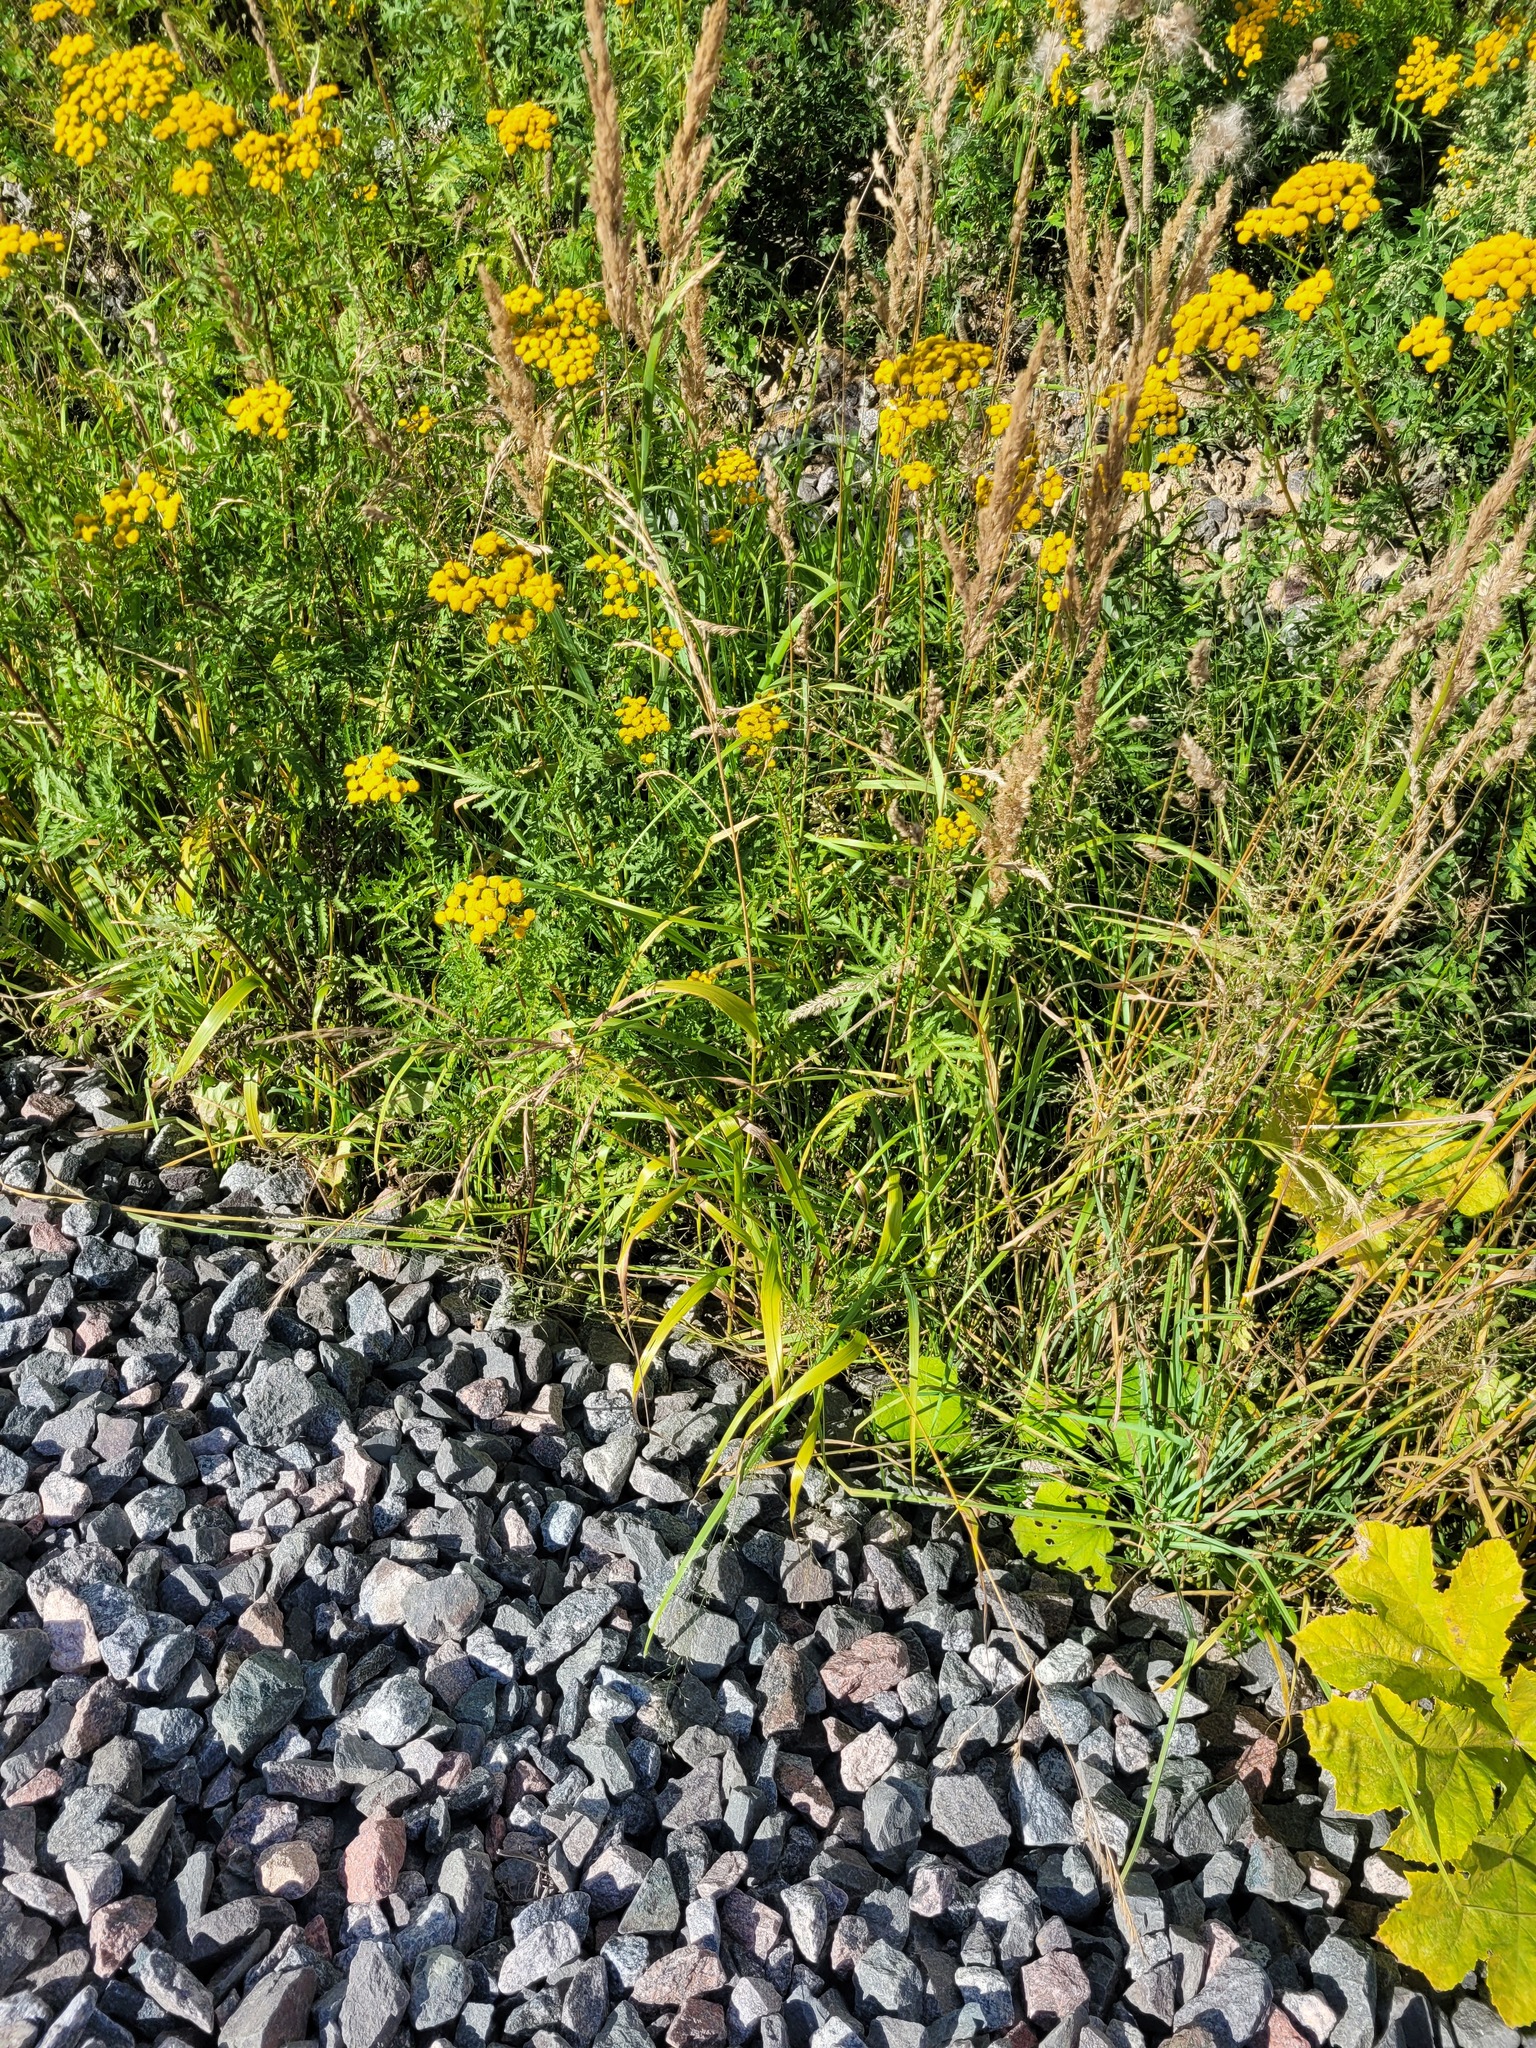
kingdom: Plantae
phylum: Tracheophyta
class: Liliopsida
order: Poales
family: Poaceae
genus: Lolium
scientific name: Lolium giganteum
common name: Giant fescue
